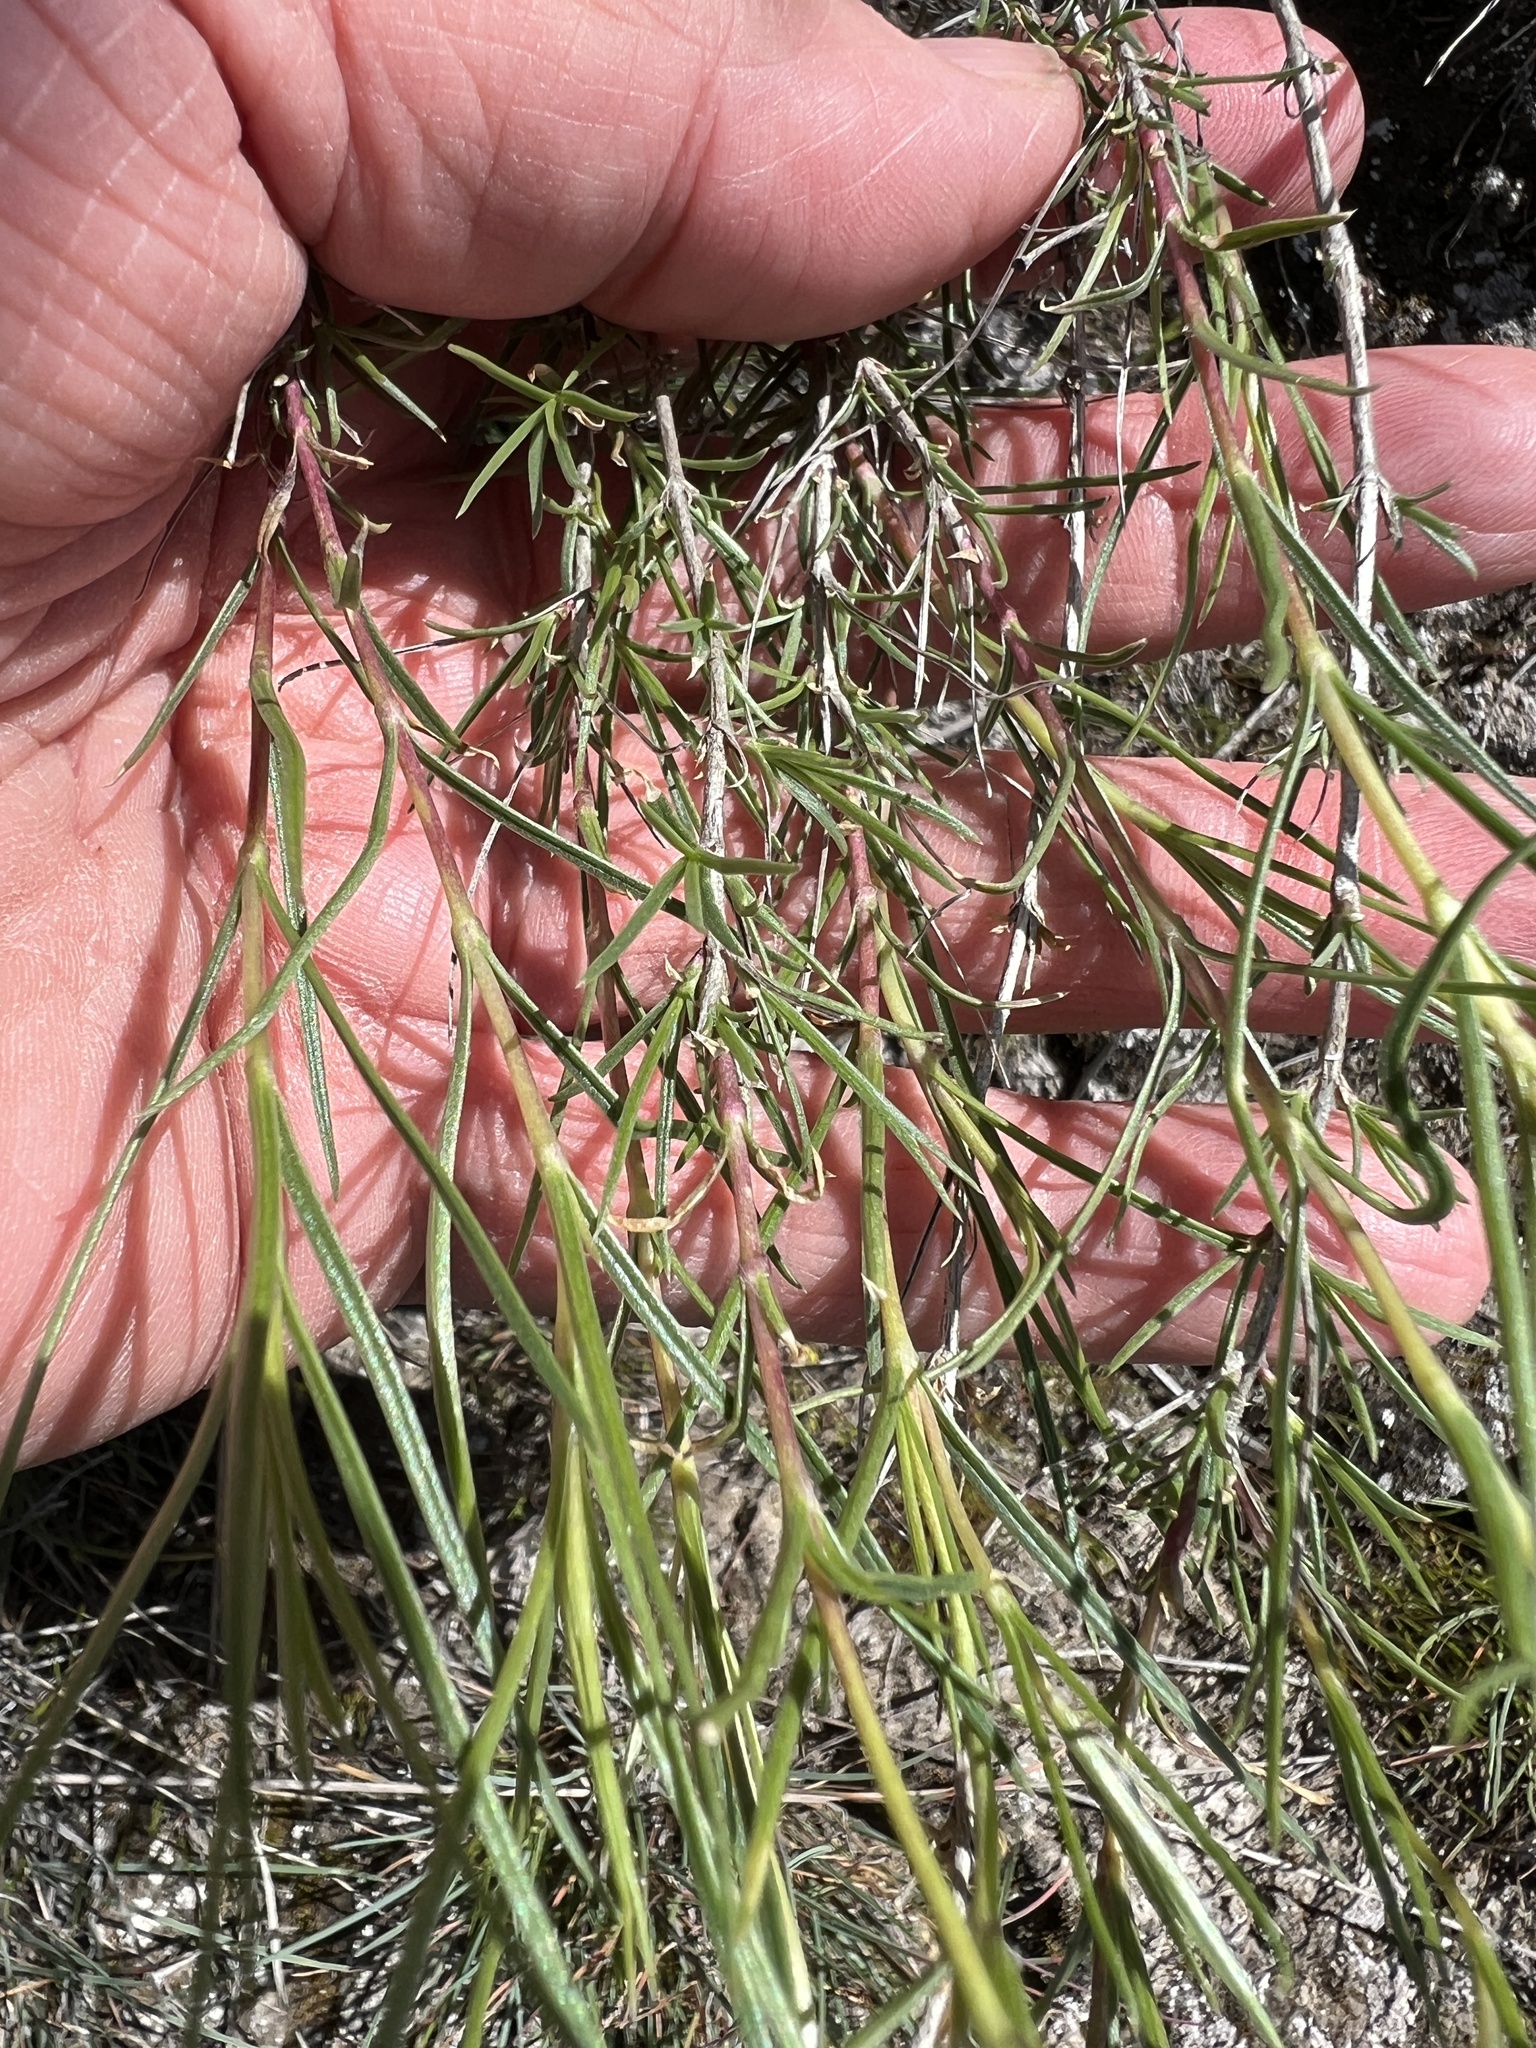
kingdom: Plantae
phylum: Tracheophyta
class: Magnoliopsida
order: Ericales
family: Polemoniaceae
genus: Phlox
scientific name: Phlox longifolia
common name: Longleaf phlox
